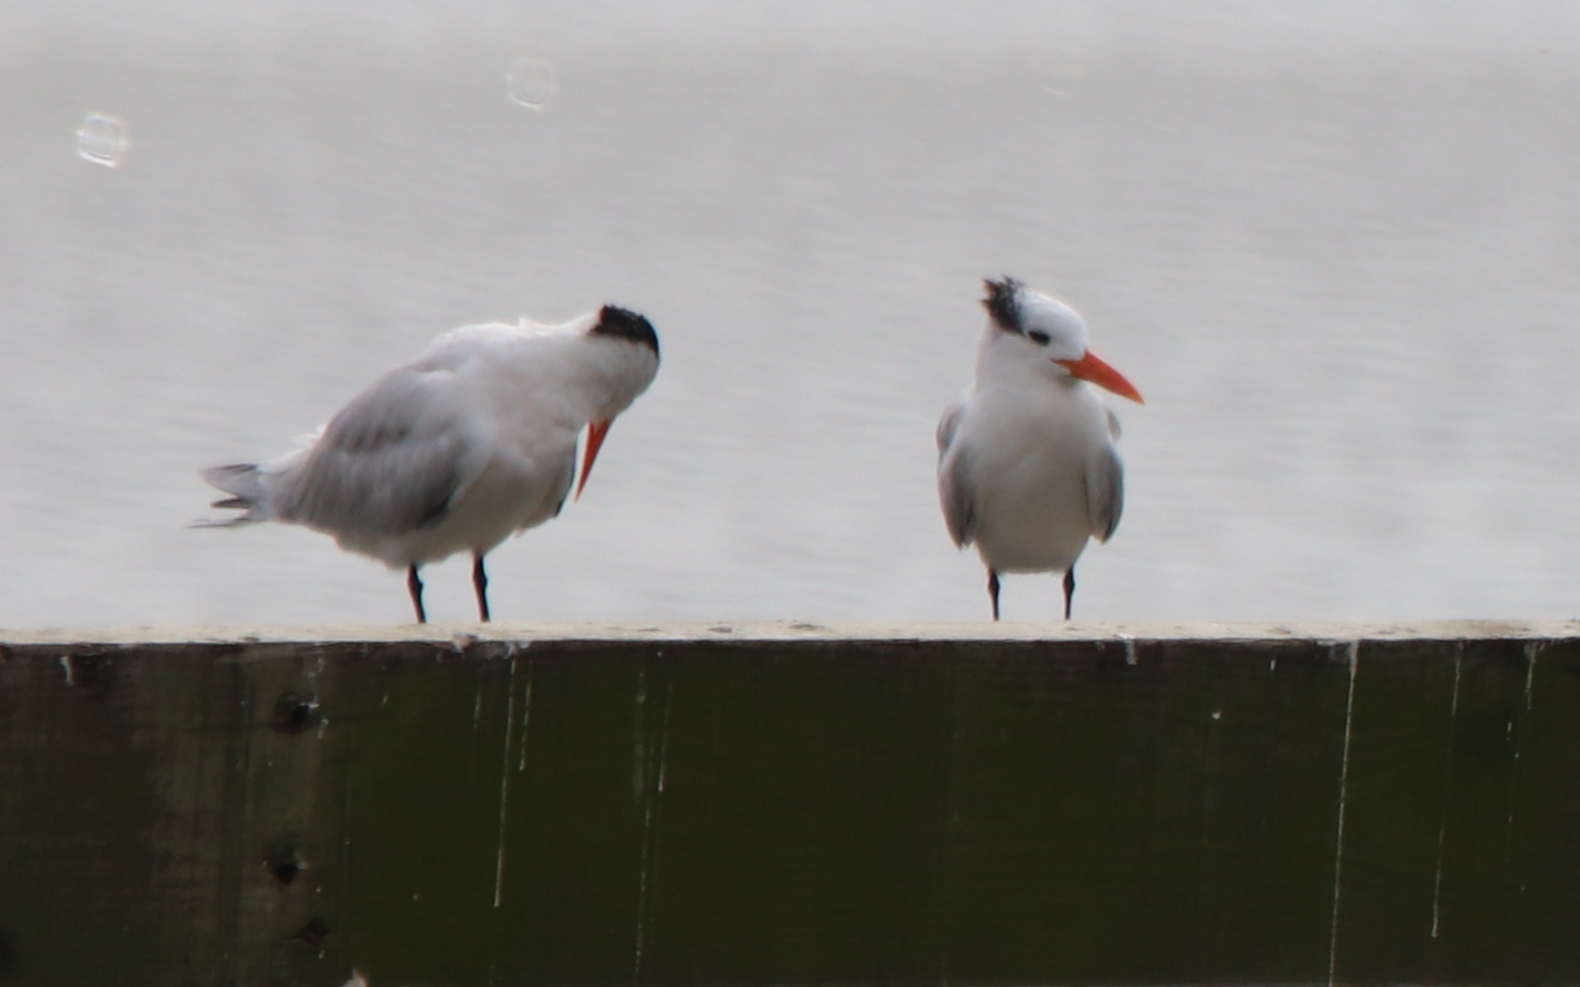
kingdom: Animalia
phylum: Chordata
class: Aves
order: Charadriiformes
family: Laridae
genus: Thalasseus
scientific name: Thalasseus maximus
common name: Royal tern
